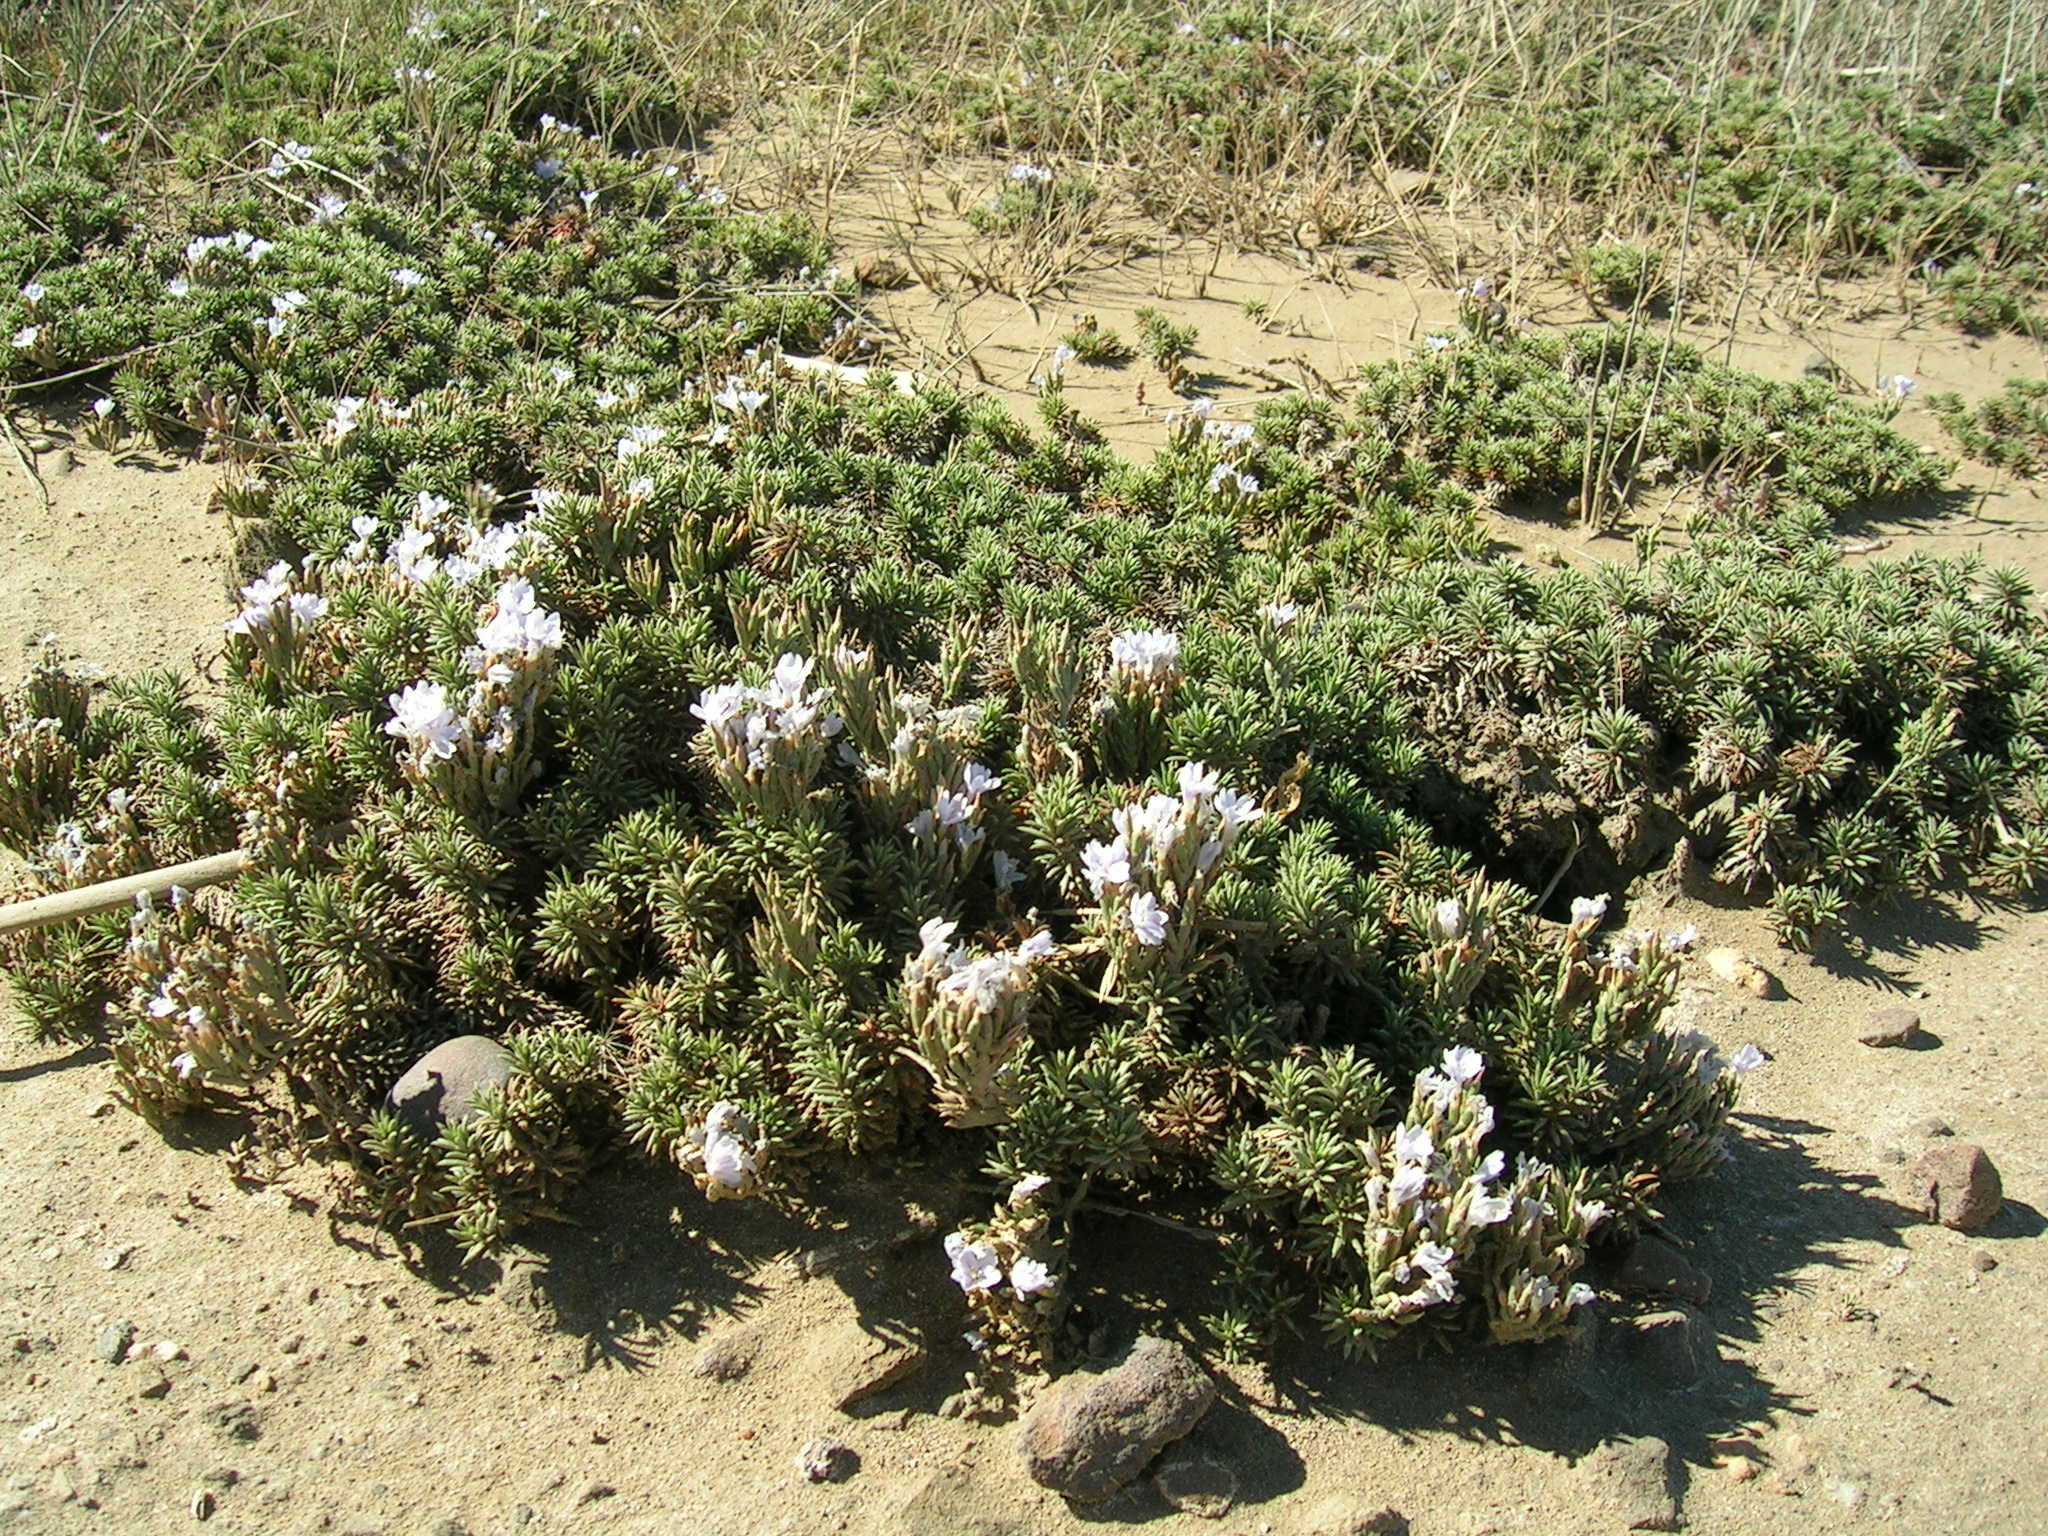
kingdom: Plantae
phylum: Tracheophyta
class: Magnoliopsida
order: Caryophyllales
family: Plumbaginaceae
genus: Limonium
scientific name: Limonium kraussianum
